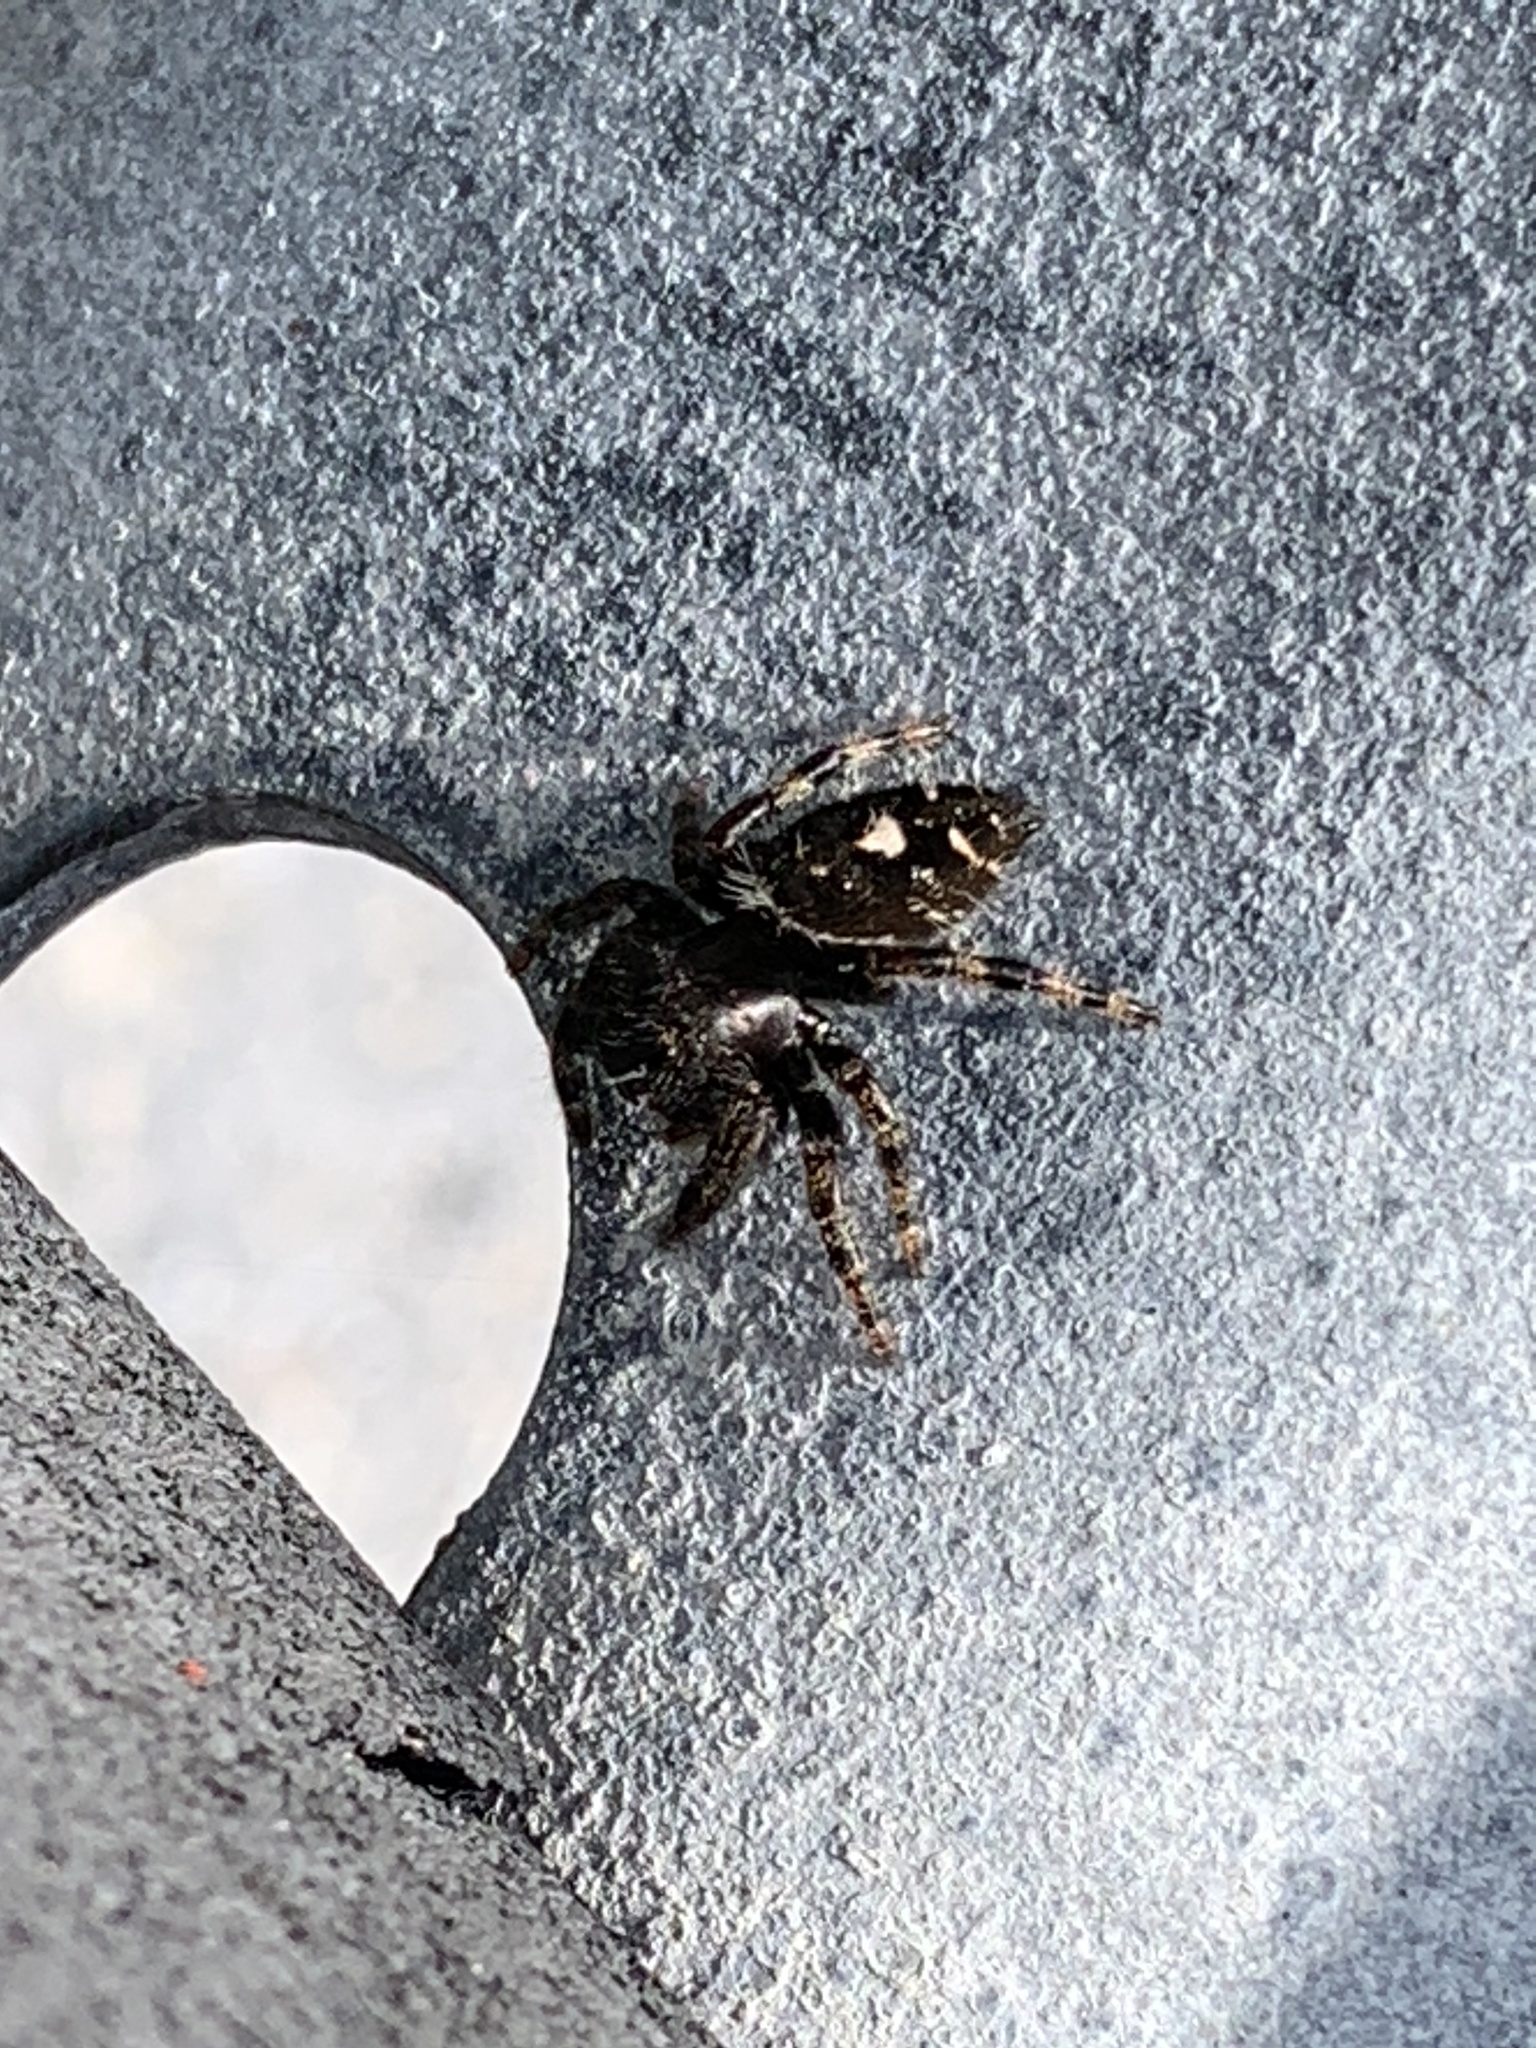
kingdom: Animalia
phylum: Arthropoda
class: Arachnida
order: Araneae
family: Salticidae
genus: Phidippus
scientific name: Phidippus audax
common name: Bold jumper
